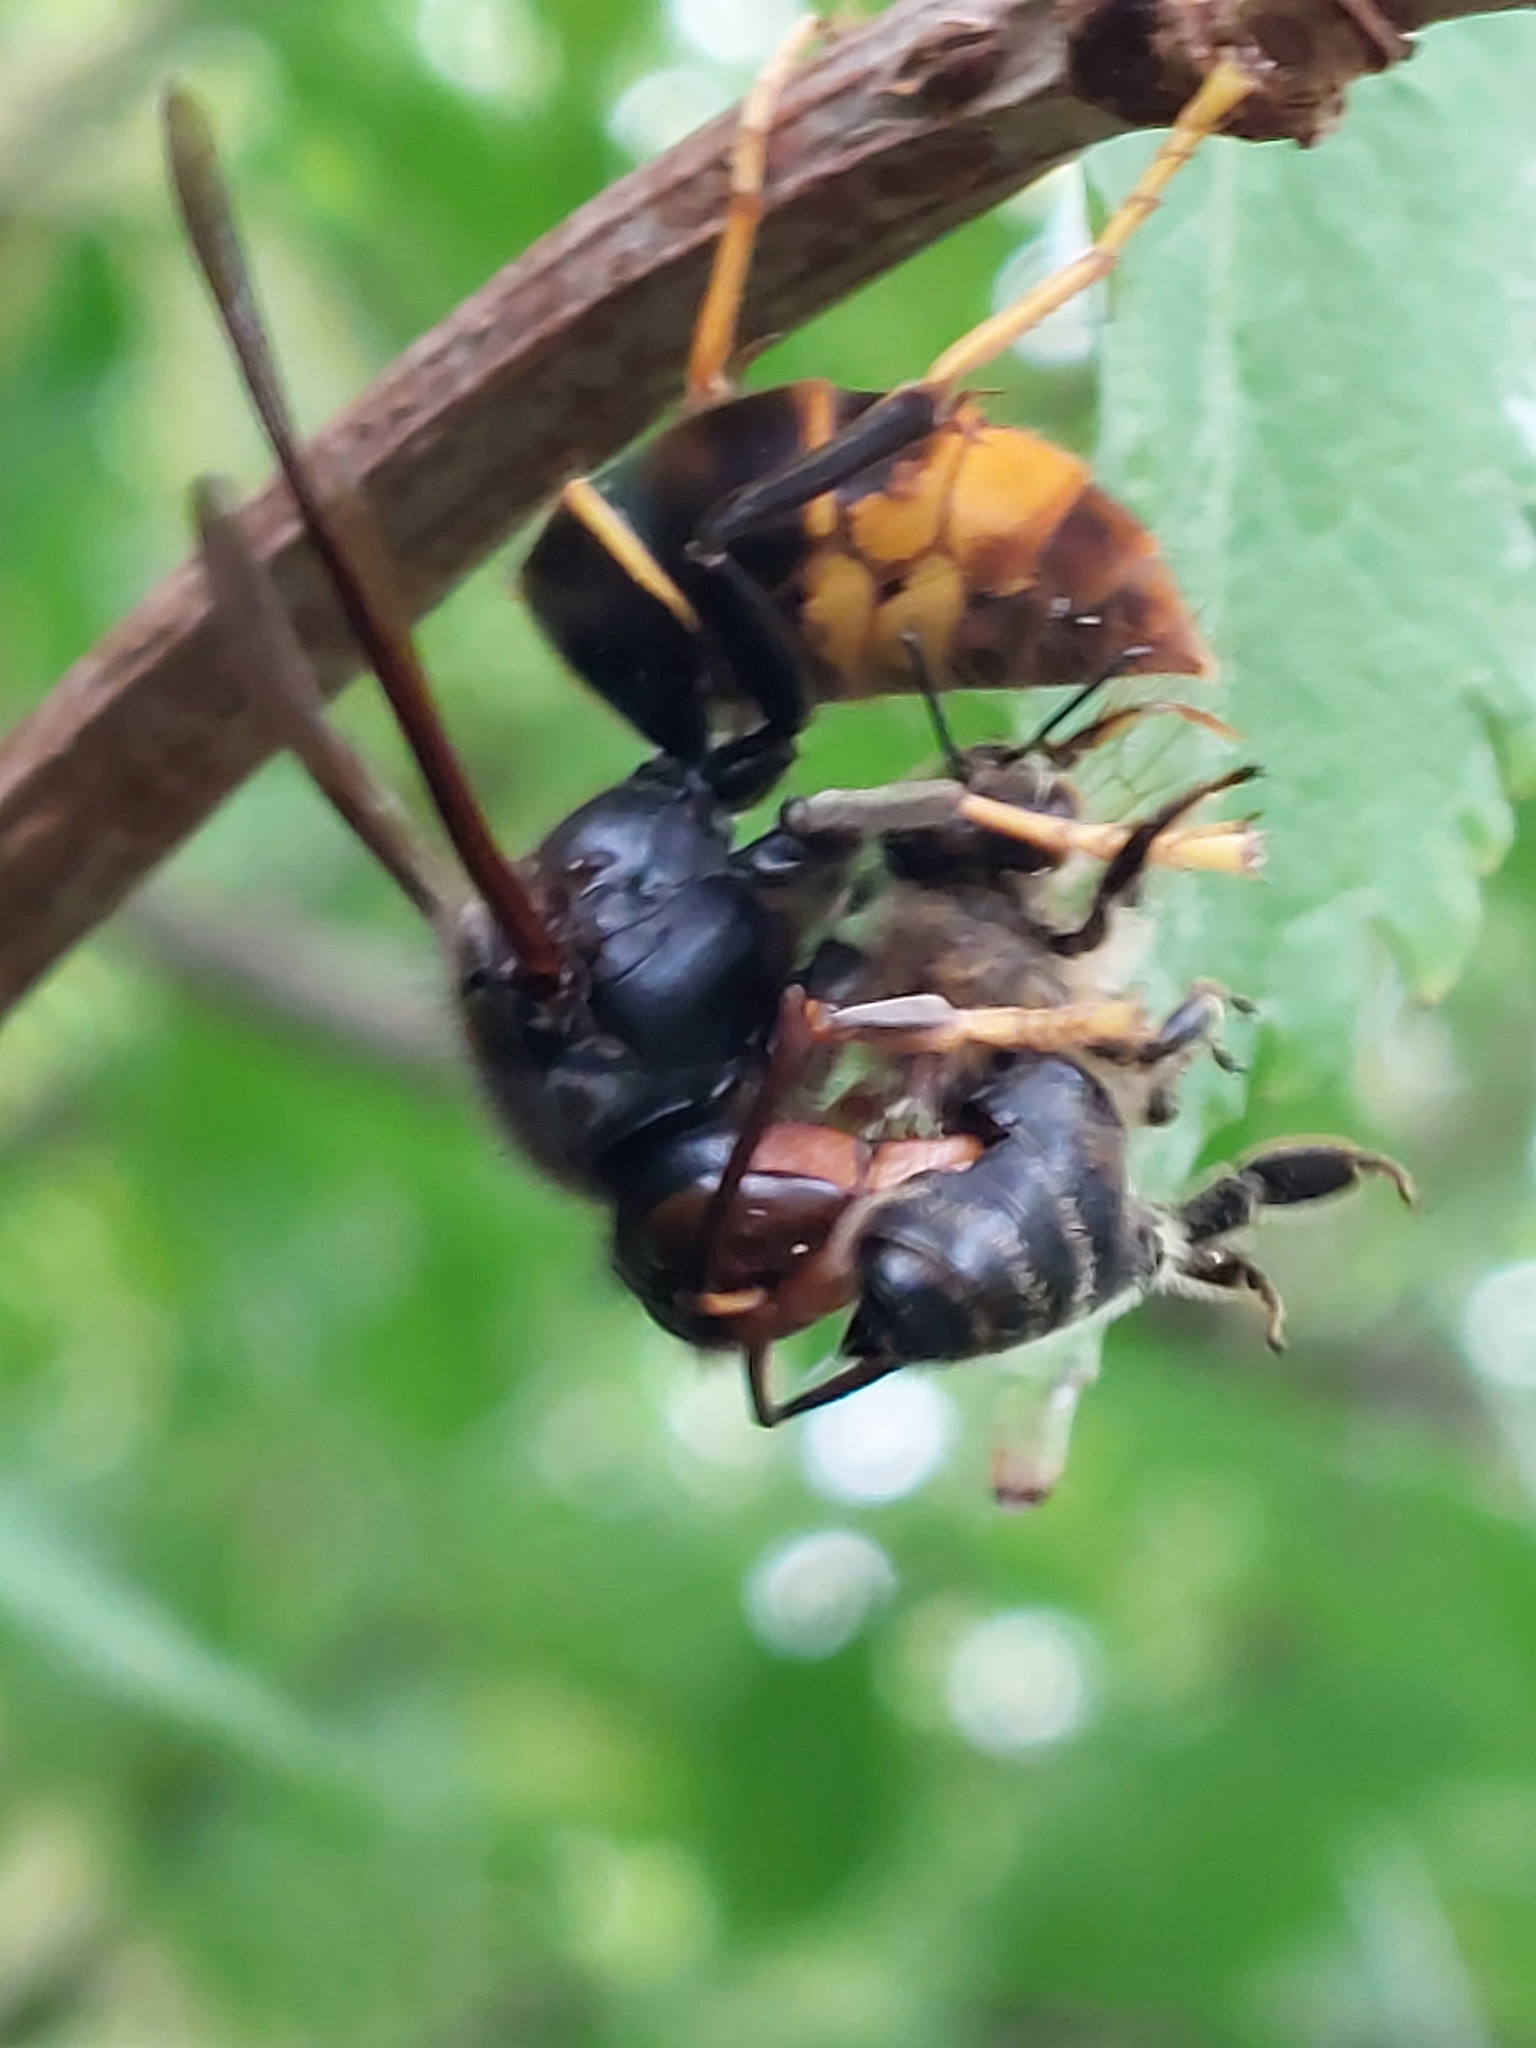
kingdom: Animalia
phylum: Arthropoda
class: Insecta
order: Hymenoptera
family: Vespidae
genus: Vespa
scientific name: Vespa velutina
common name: Asian hornet
